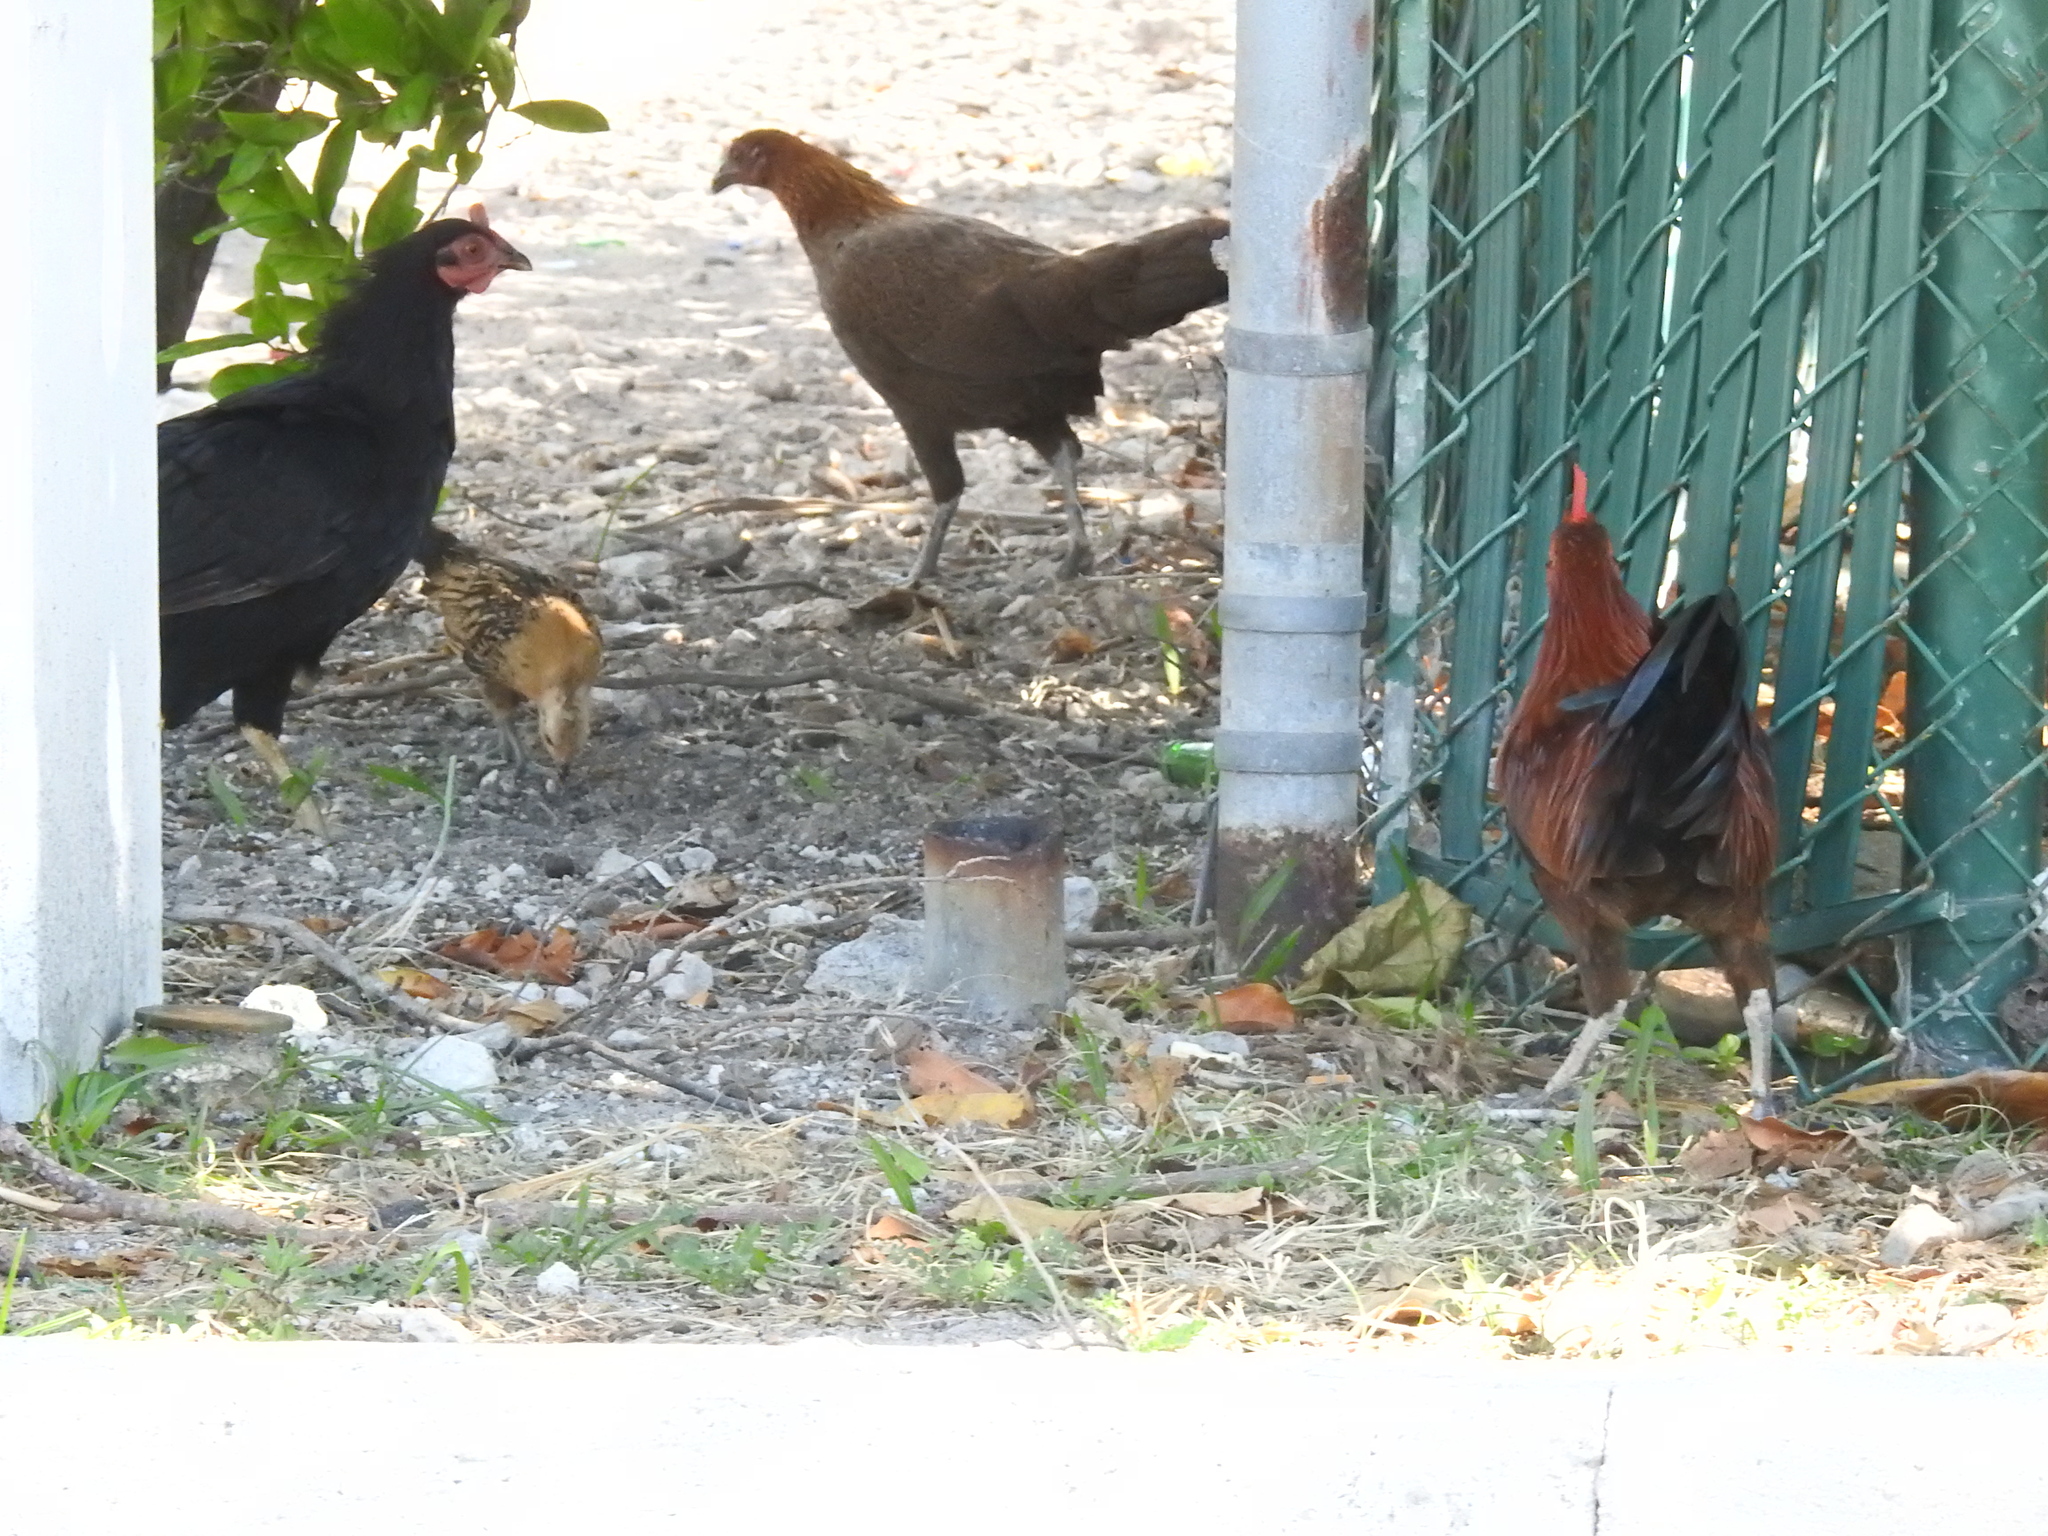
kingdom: Animalia
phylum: Chordata
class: Aves
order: Galliformes
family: Phasianidae
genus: Gallus
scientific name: Gallus gallus
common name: Red junglefowl
